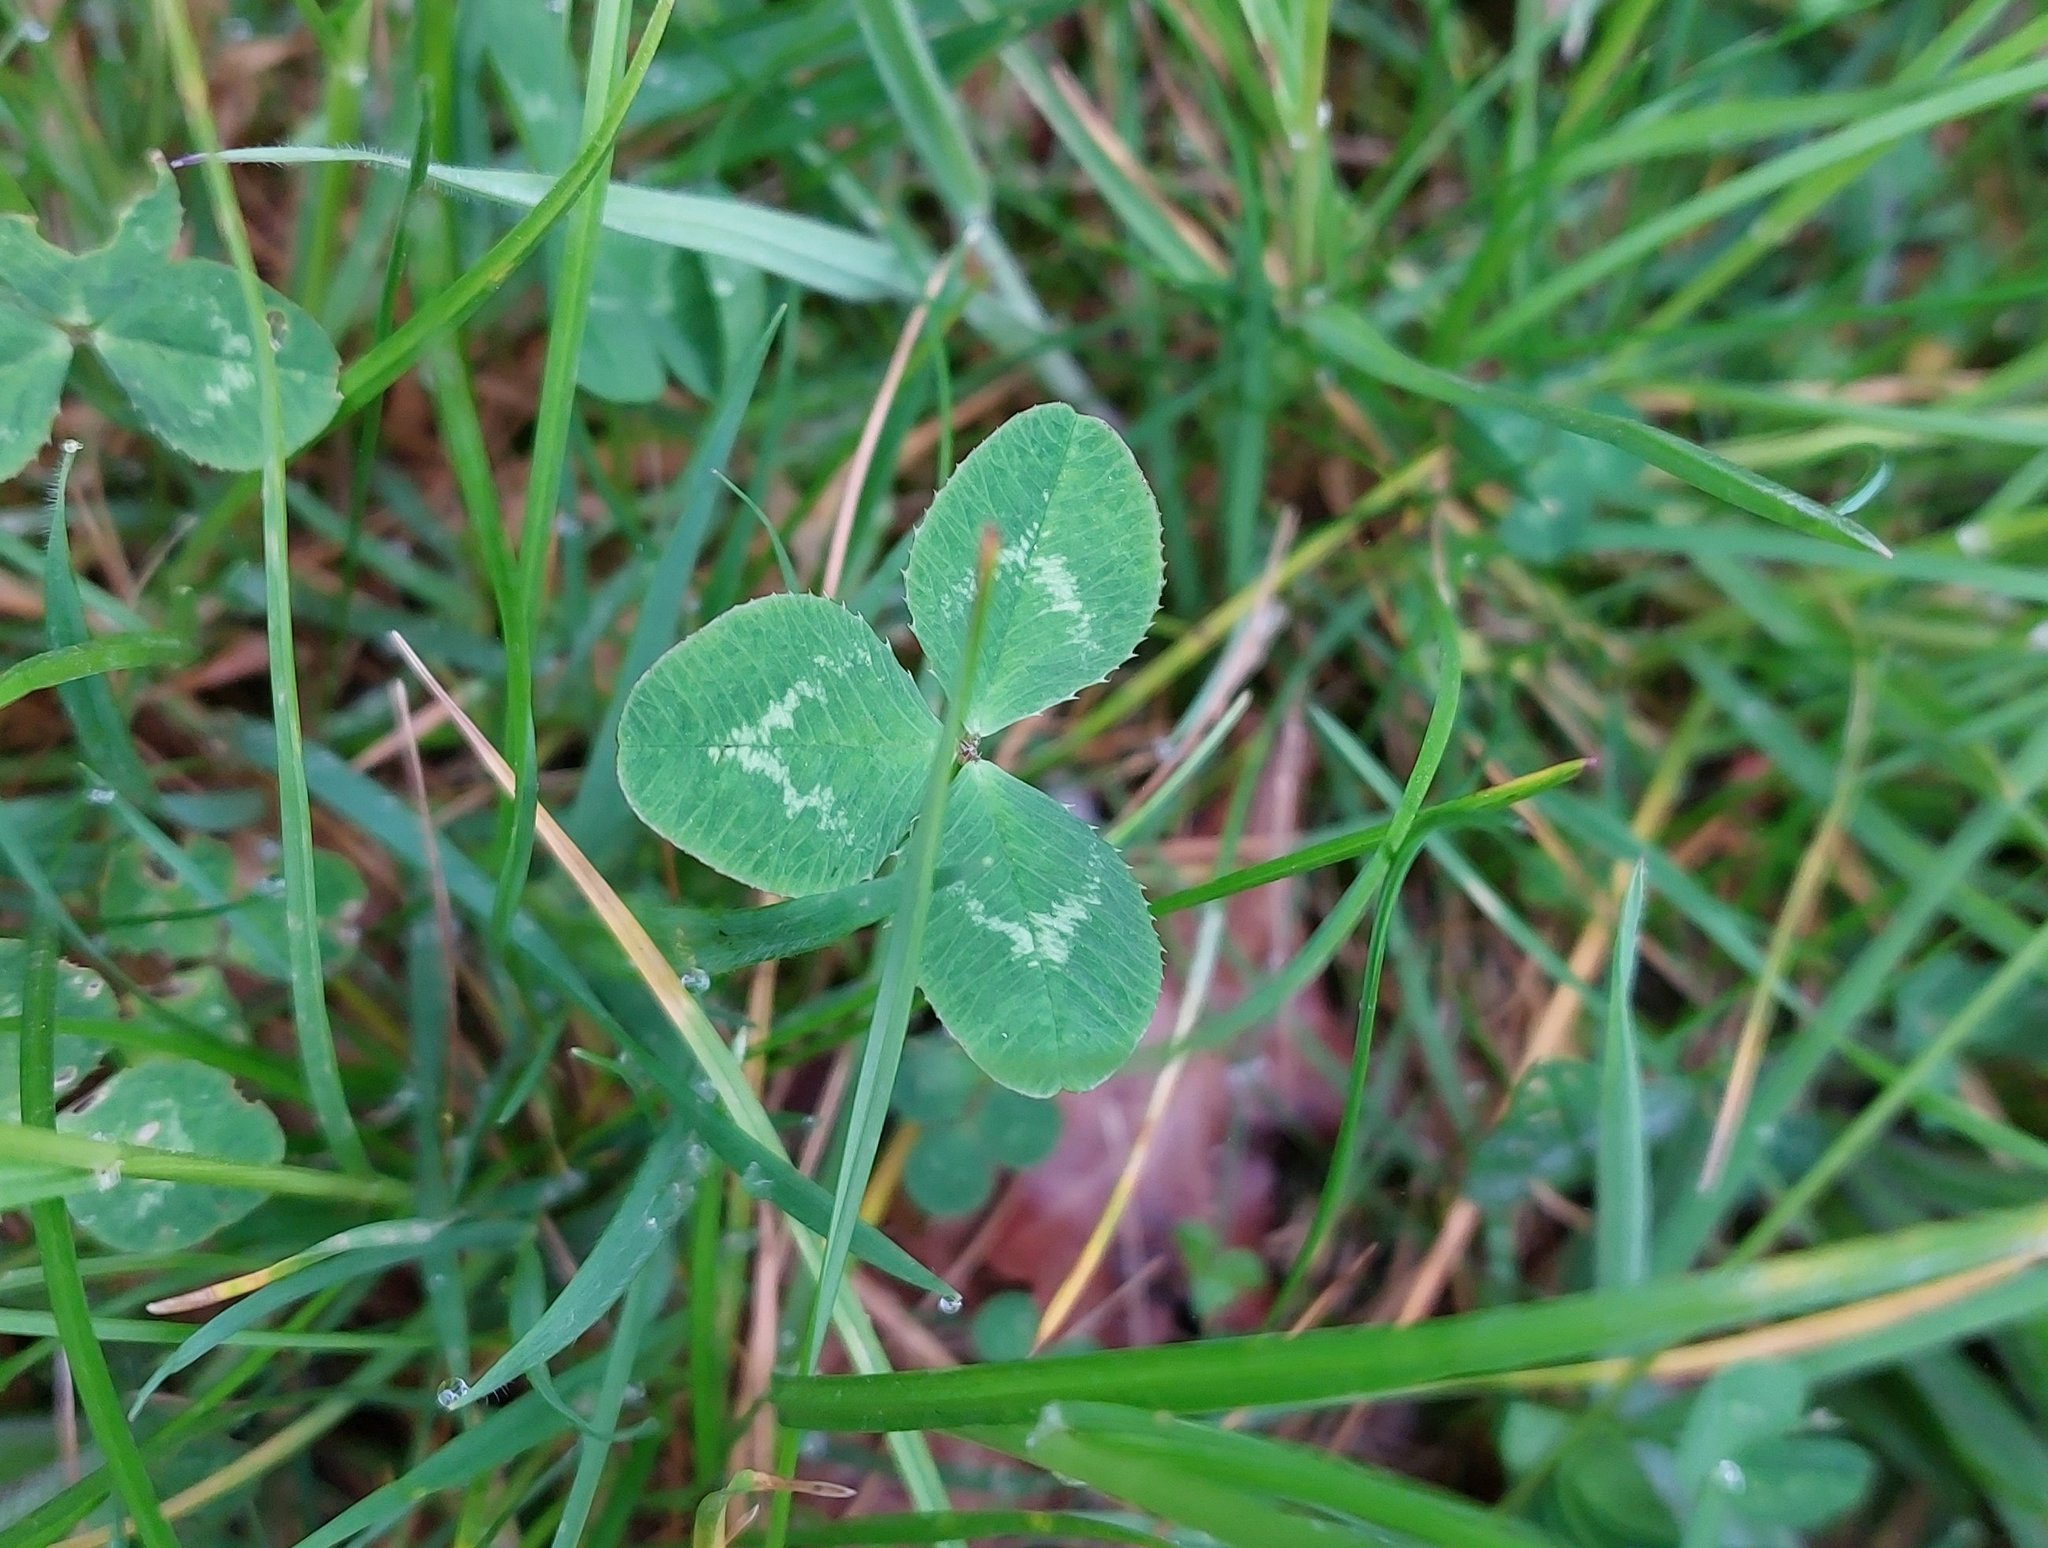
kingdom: Plantae
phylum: Tracheophyta
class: Magnoliopsida
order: Fabales
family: Fabaceae
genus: Trifolium
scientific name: Trifolium repens
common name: White clover
